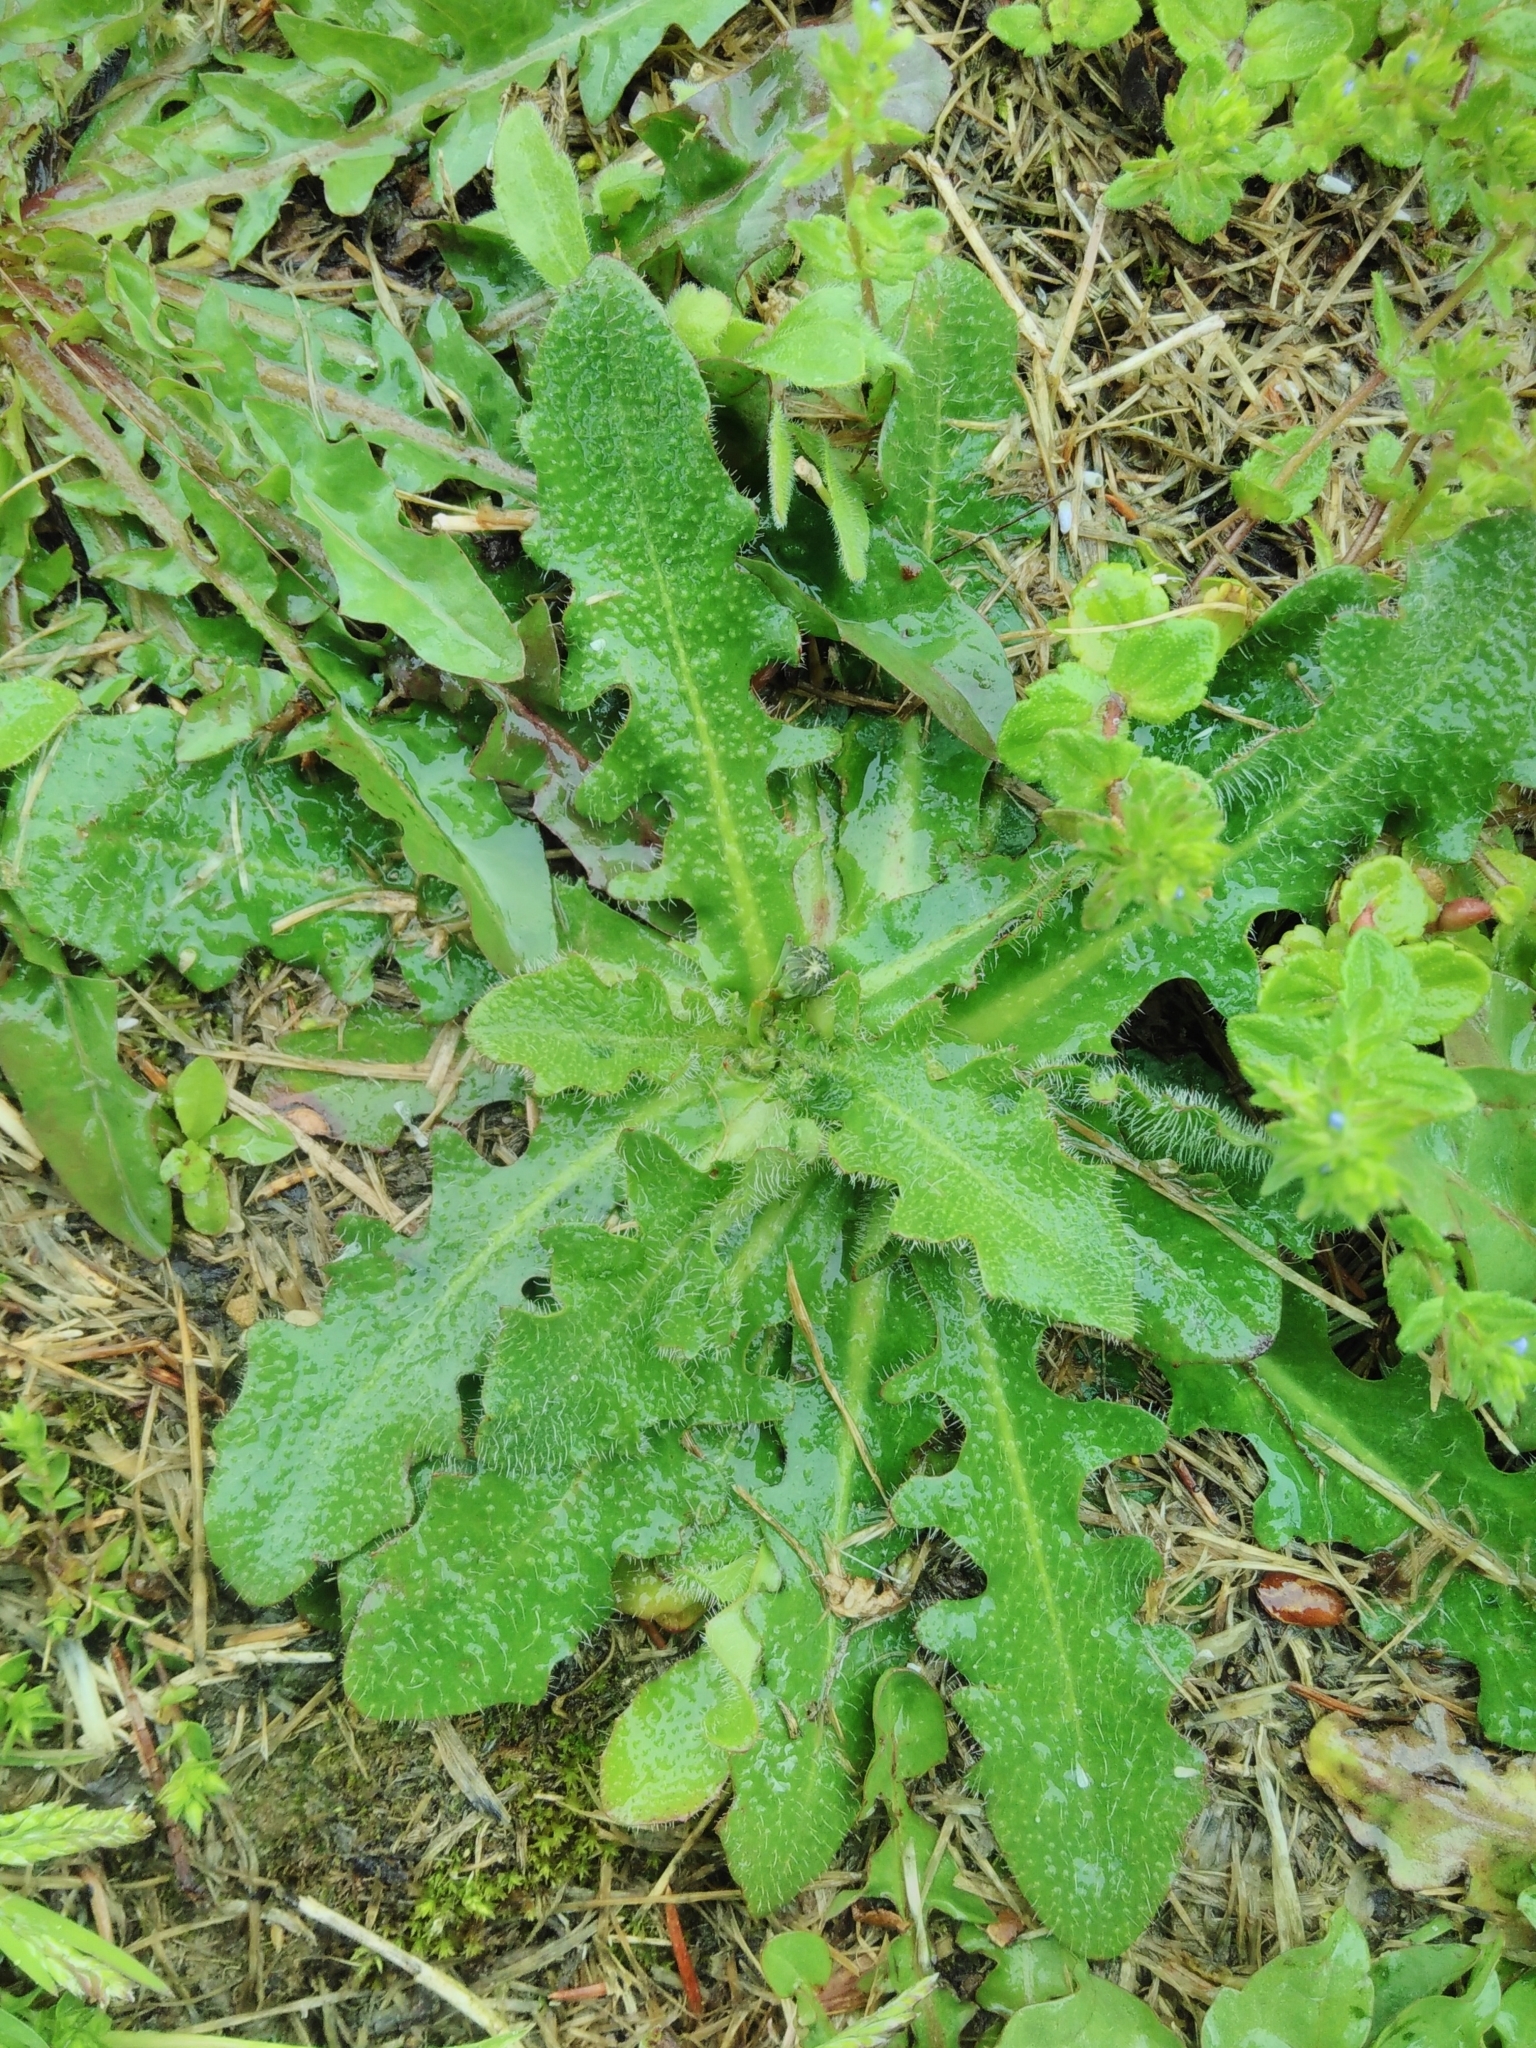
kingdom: Plantae
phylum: Tracheophyta
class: Magnoliopsida
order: Asterales
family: Asteraceae
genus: Hypochaeris
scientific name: Hypochaeris radicata
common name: Flatweed
